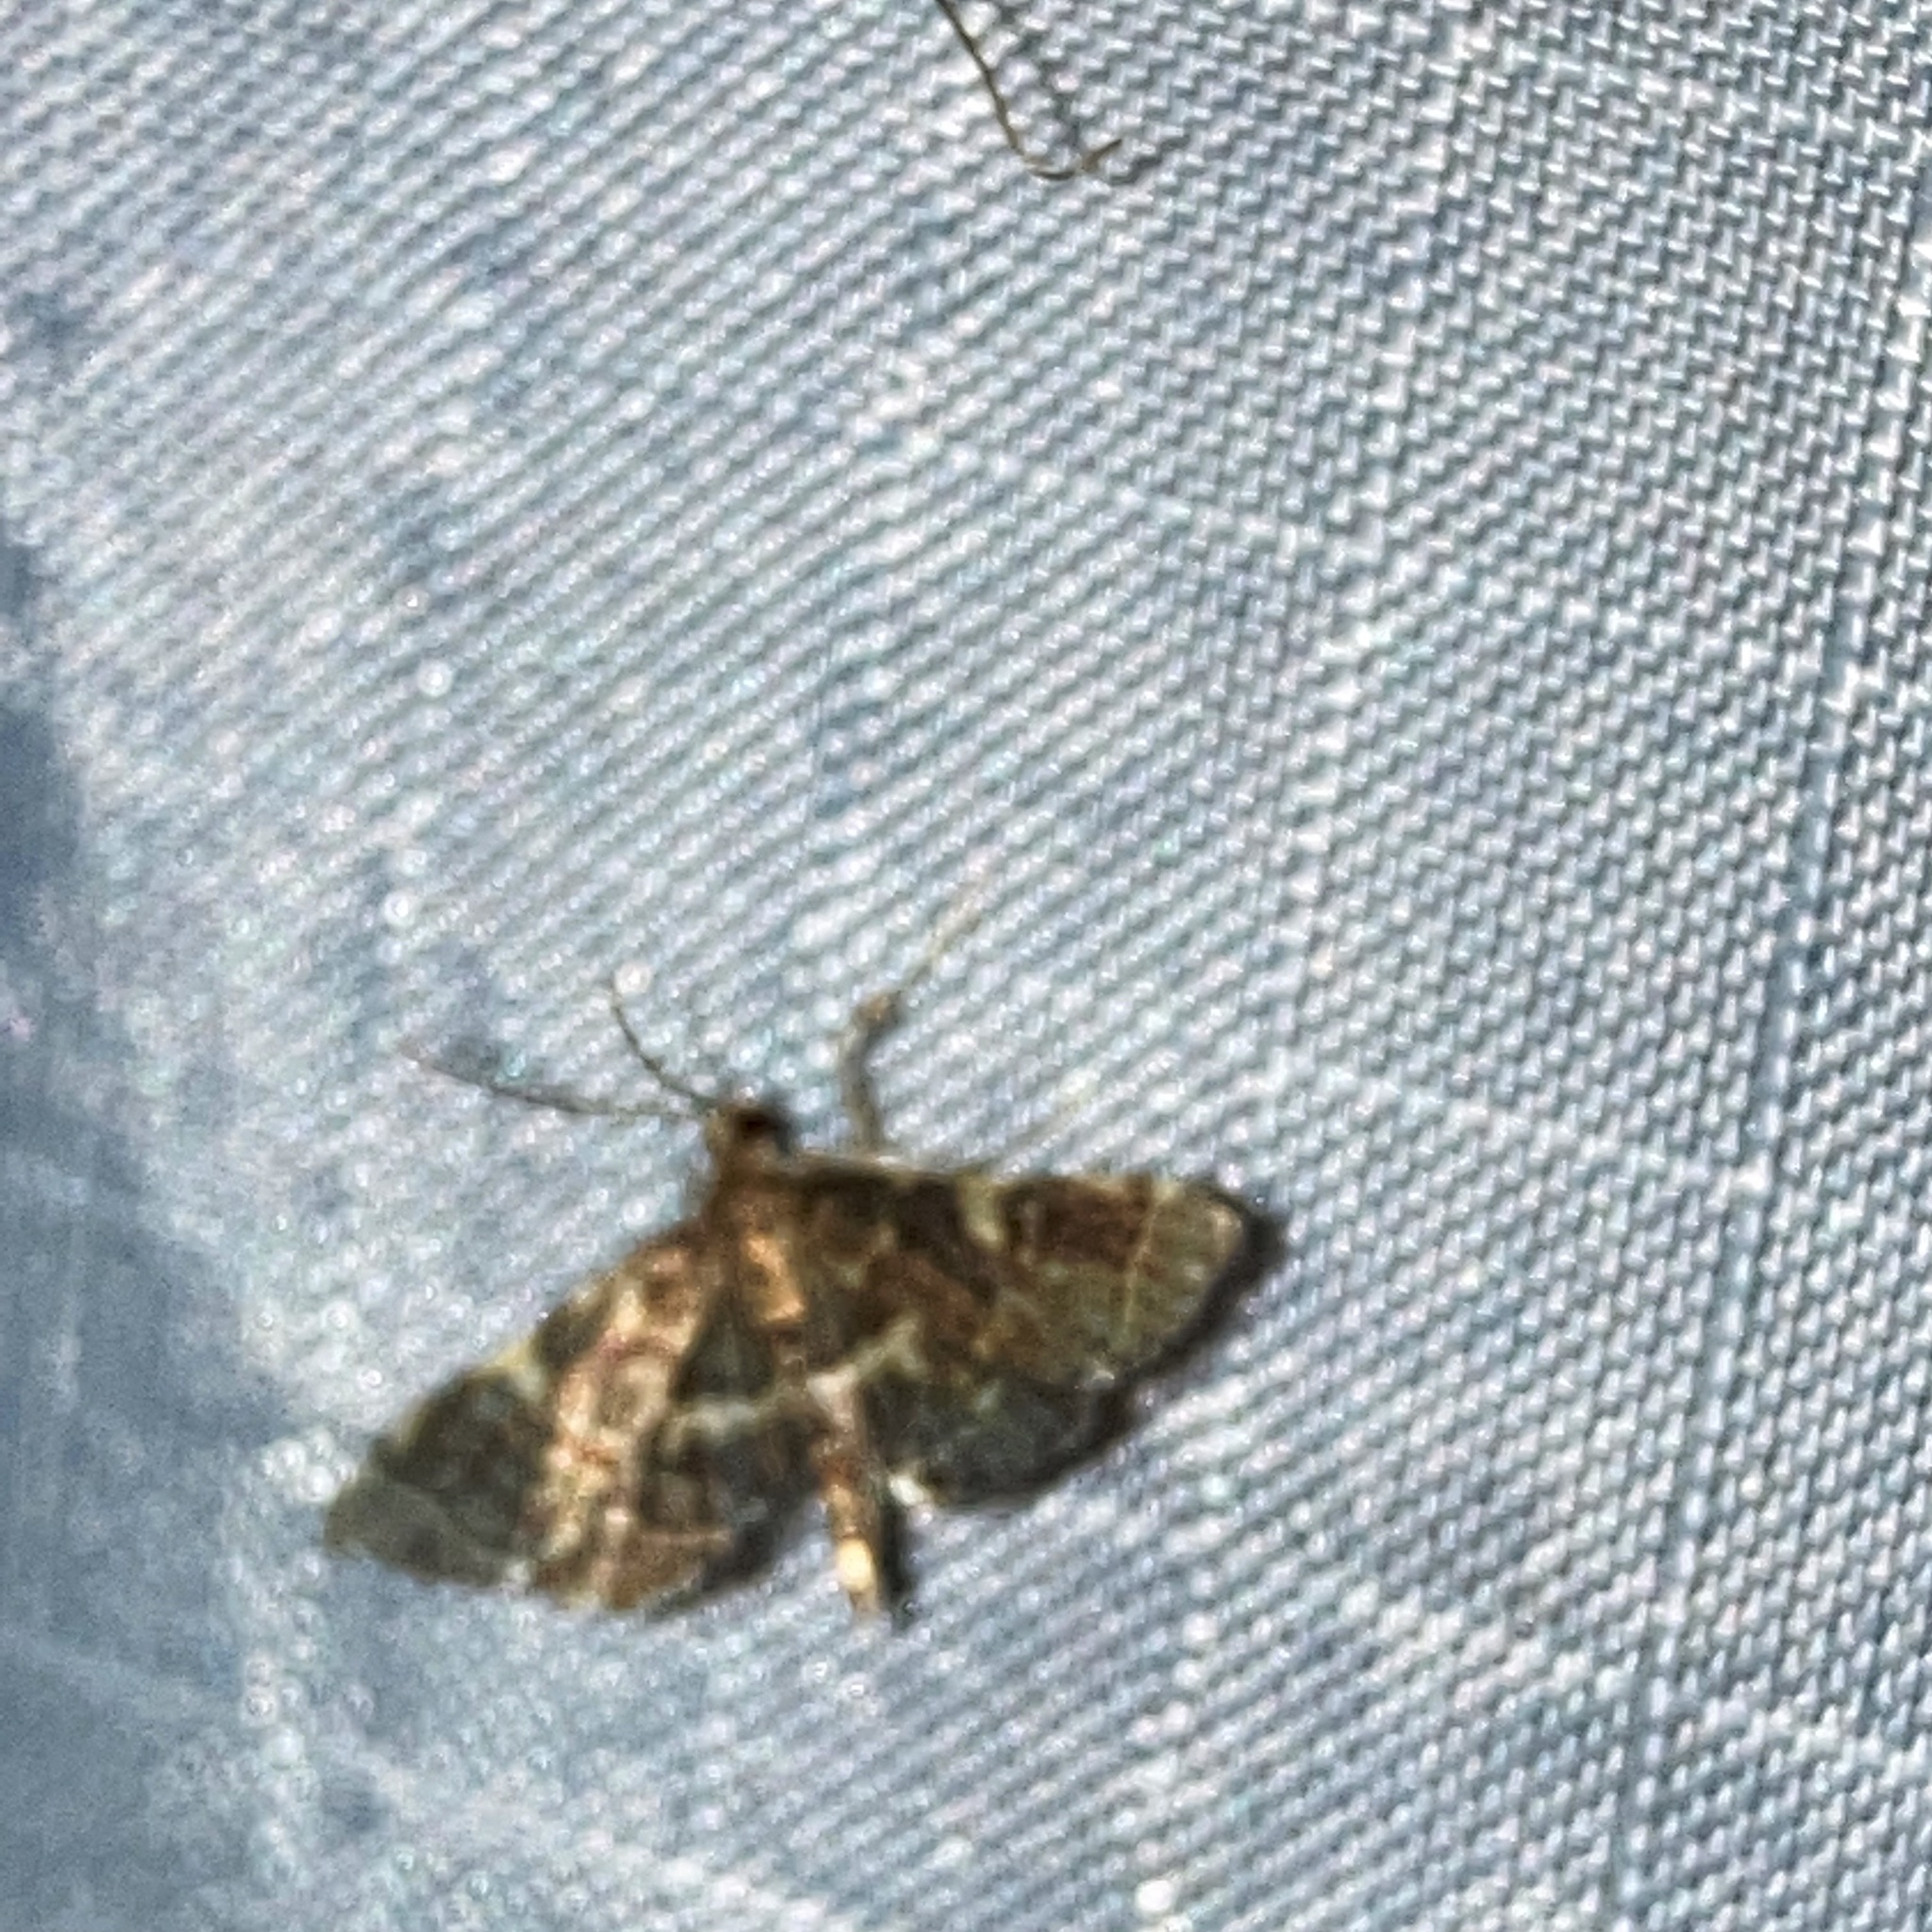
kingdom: Animalia
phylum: Arthropoda
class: Insecta
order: Lepidoptera
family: Crambidae
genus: Anageshna
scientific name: Anageshna primordialis
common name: Yellow-spotted webworm moth
